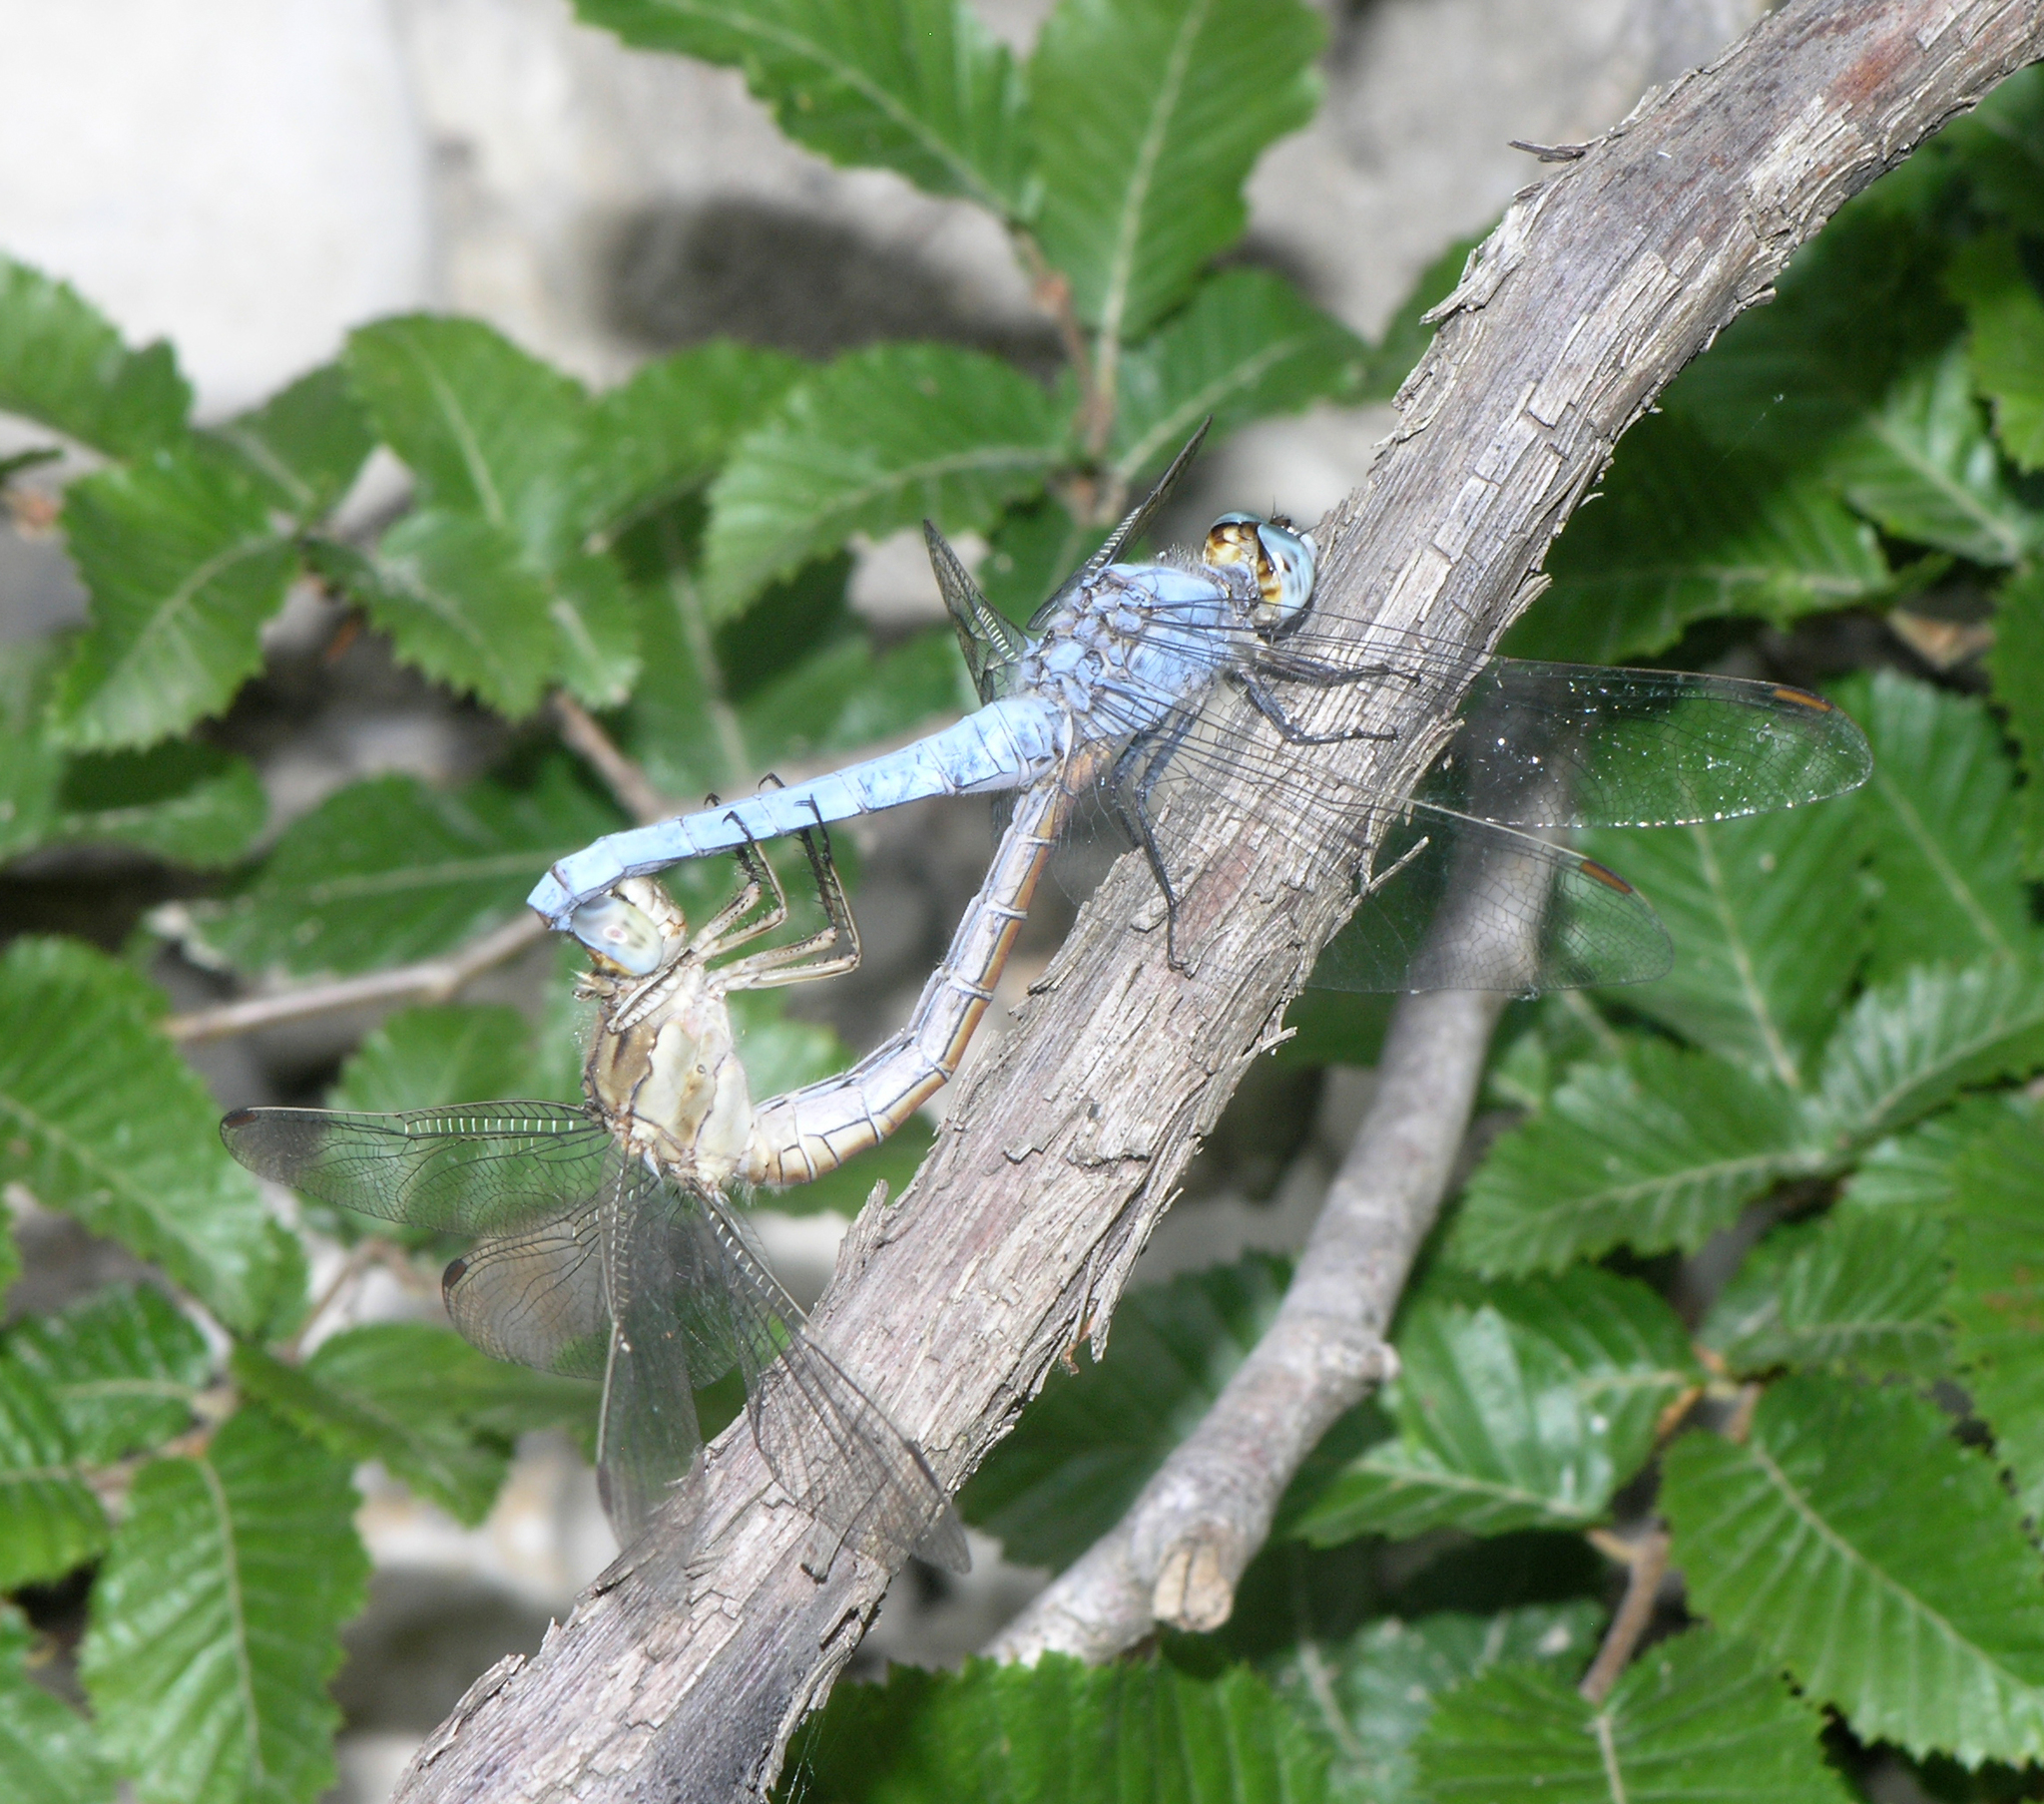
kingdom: Plantae
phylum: Tracheophyta
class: Magnoliopsida
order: Fagales
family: Betulaceae
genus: Carpinus
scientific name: Carpinus orientalis
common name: Eastern hornbeam
